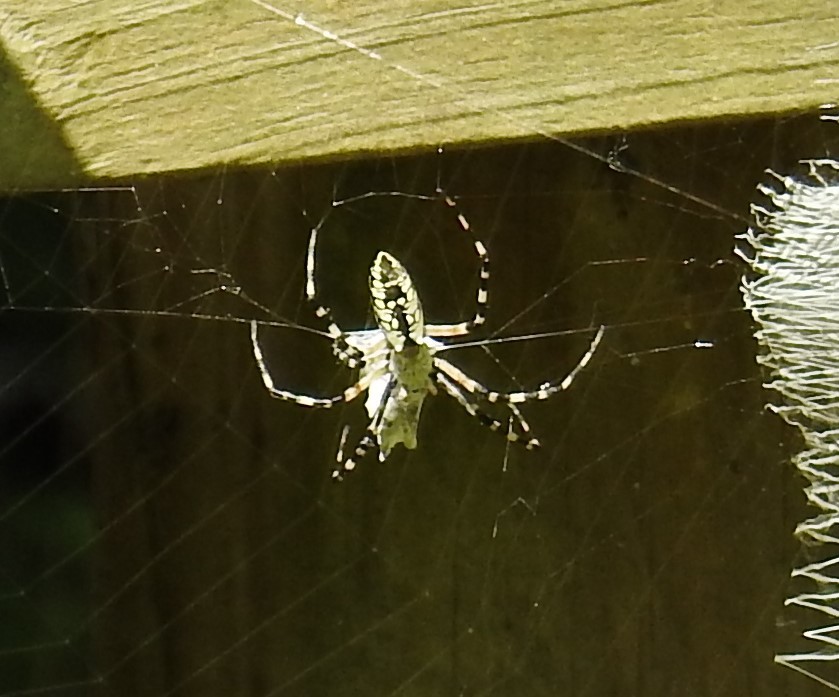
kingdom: Animalia
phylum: Arthropoda
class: Arachnida
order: Araneae
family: Araneidae
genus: Argiope
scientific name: Argiope aurantia
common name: Orb weavers
